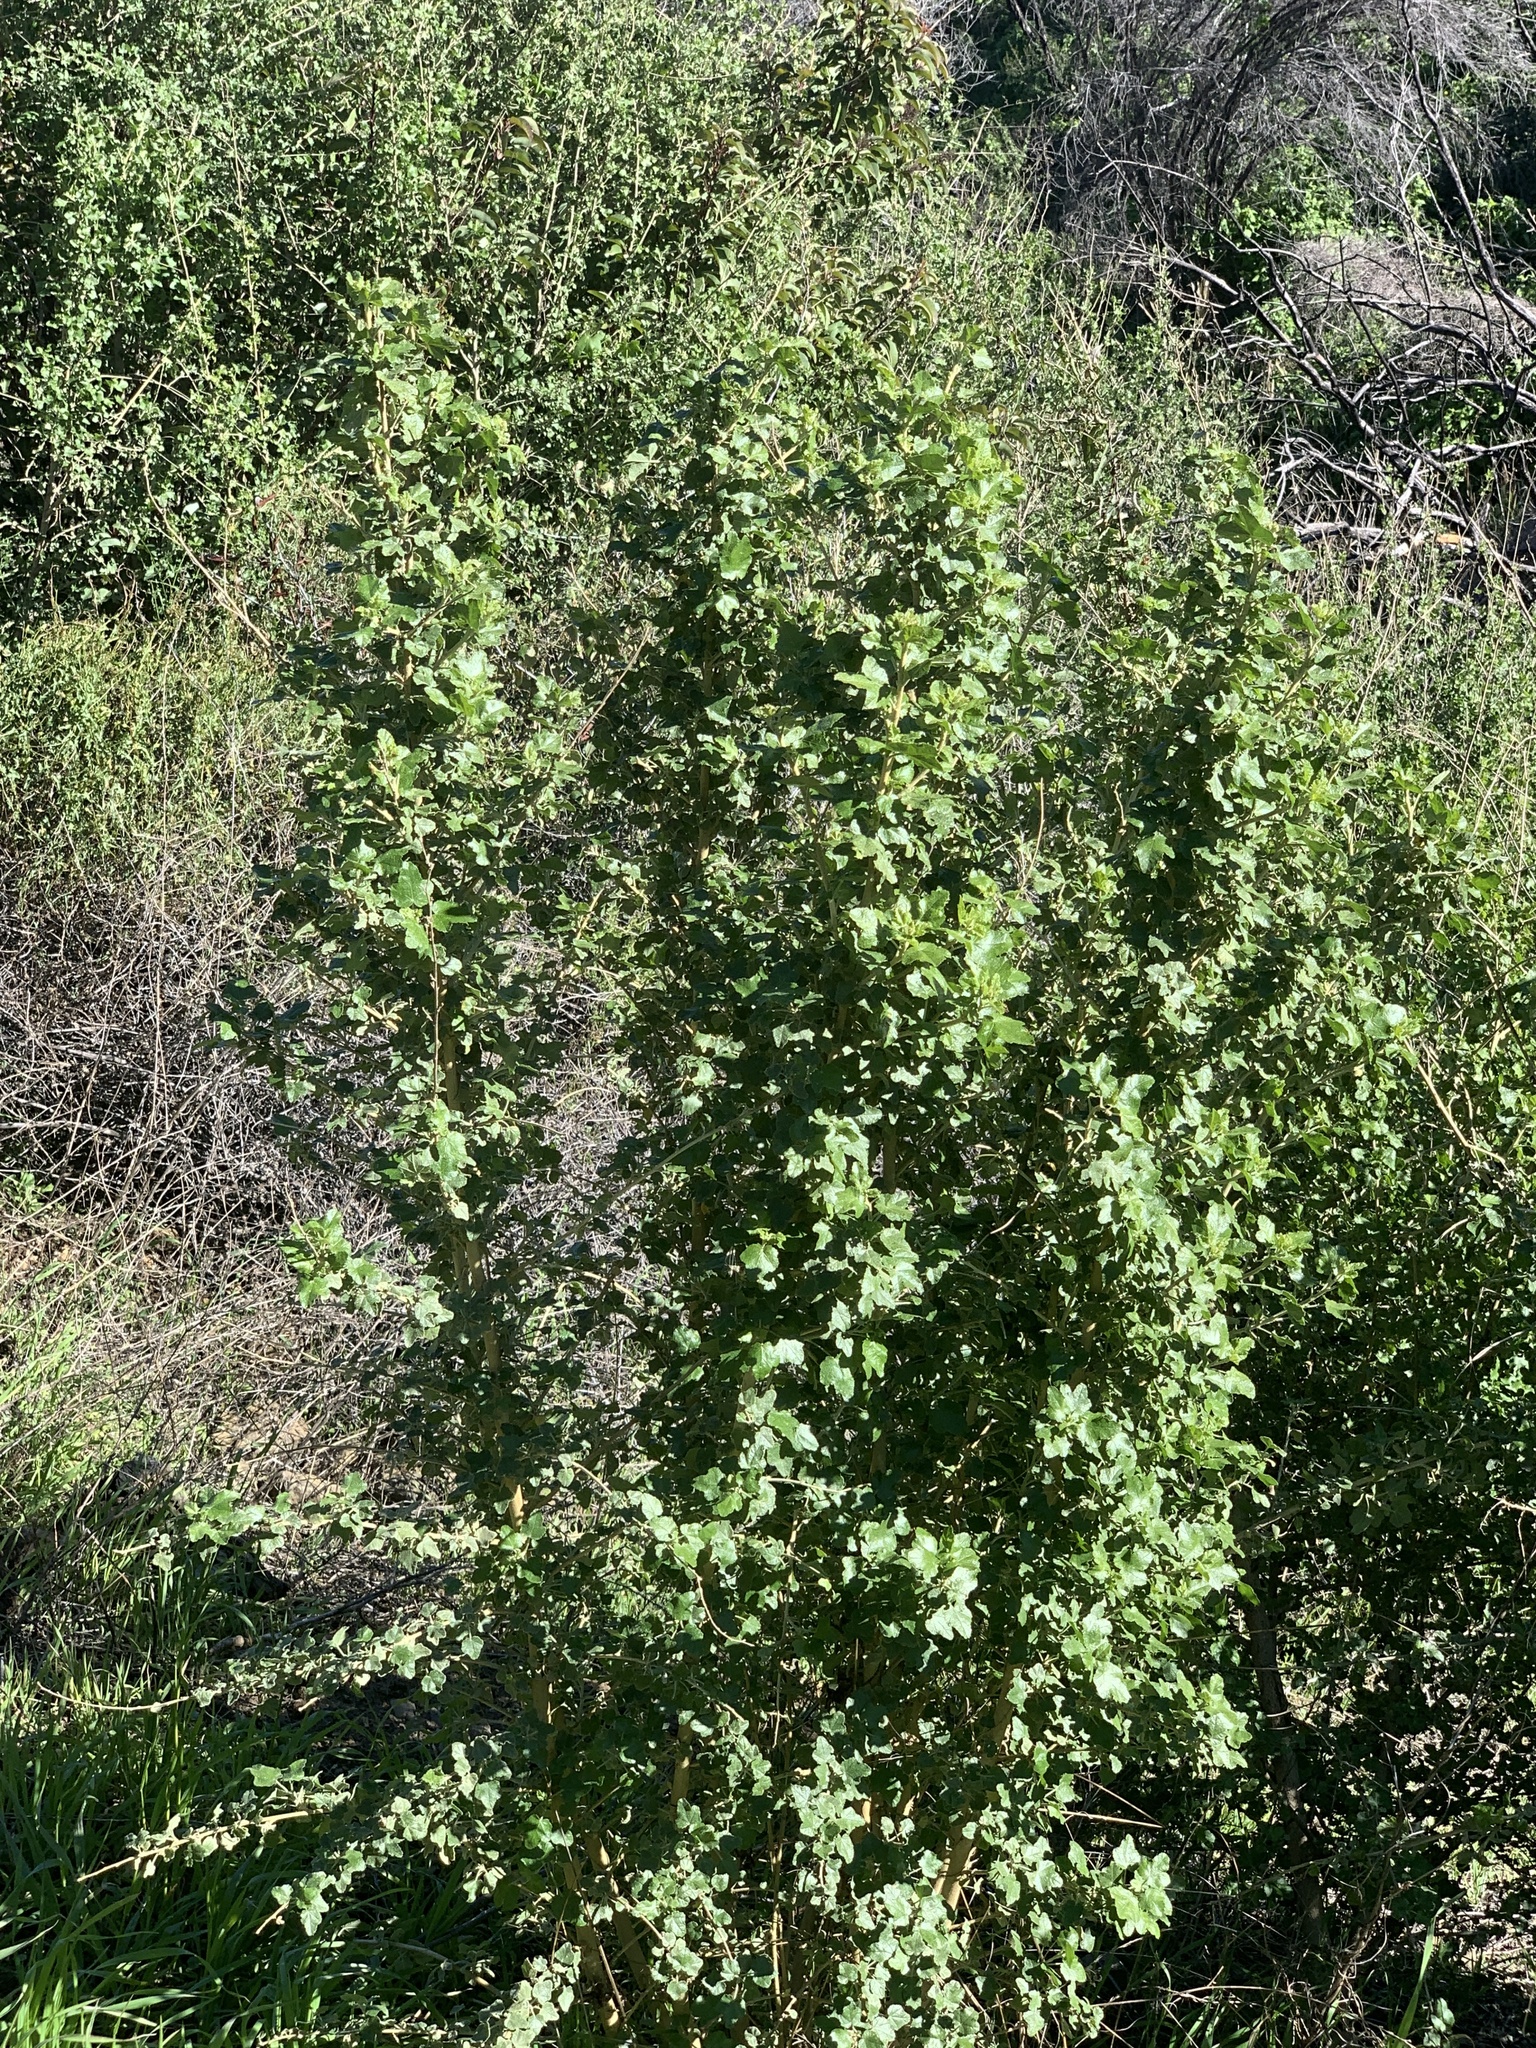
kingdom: Plantae
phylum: Tracheophyta
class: Magnoliopsida
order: Malvales
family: Malvaceae
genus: Malacothamnus
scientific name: Malacothamnus fasciculatus
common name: Sant cruz island bush-mallow
